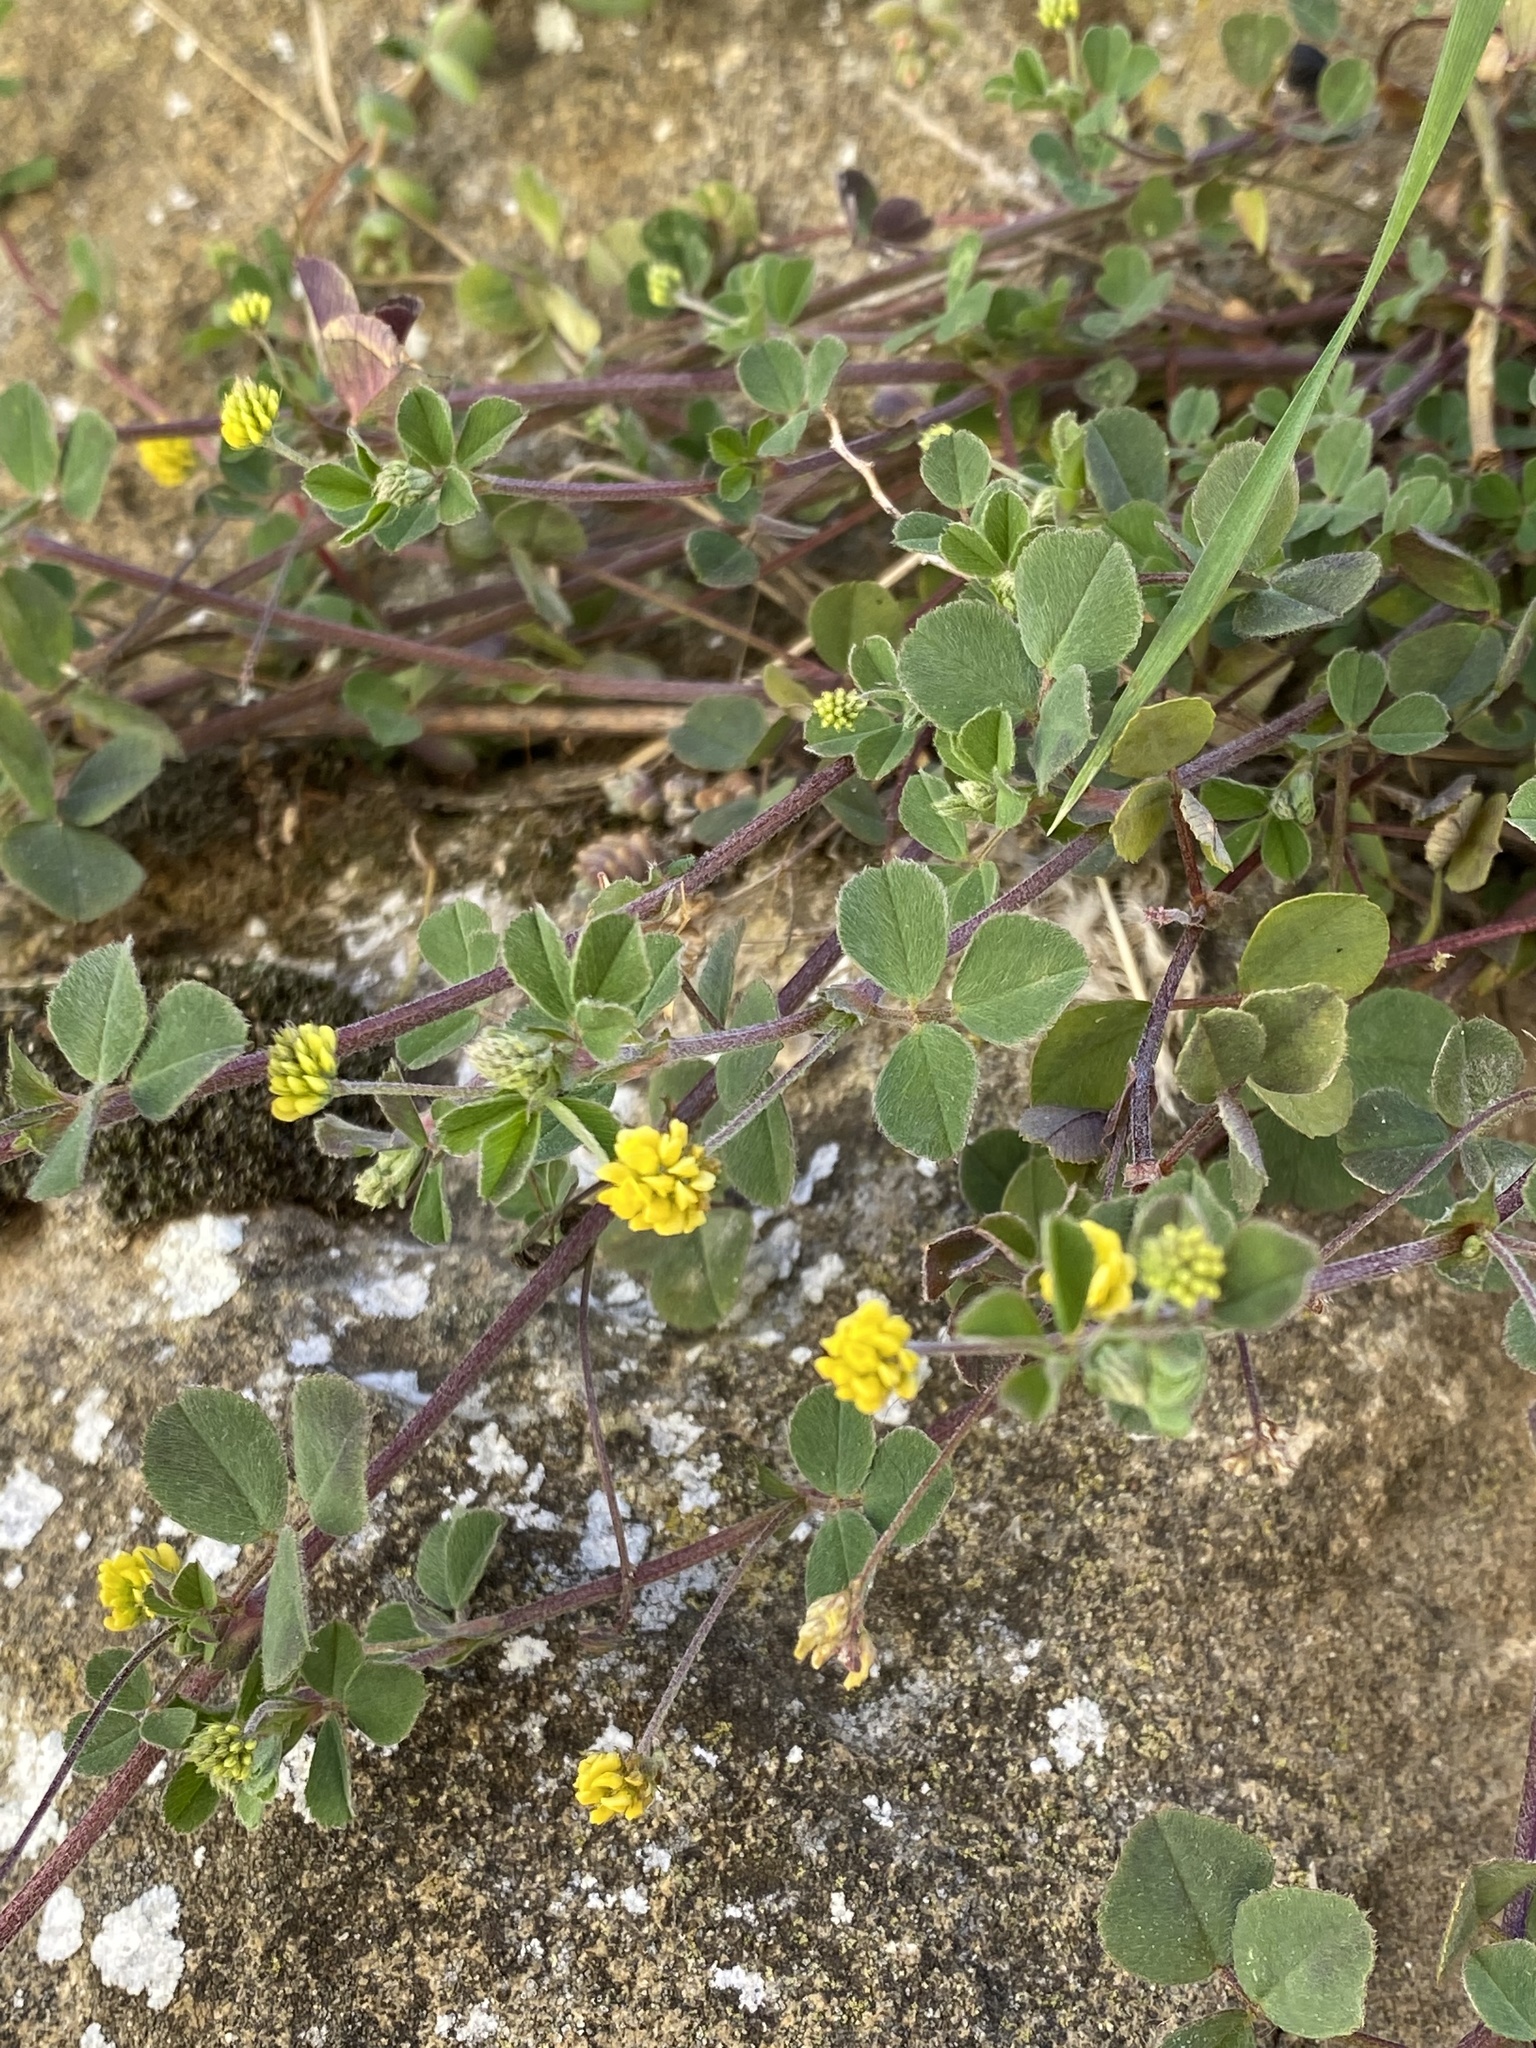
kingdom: Plantae
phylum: Tracheophyta
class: Magnoliopsida
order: Fabales
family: Fabaceae
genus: Medicago
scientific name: Medicago lupulina
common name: Black medick
